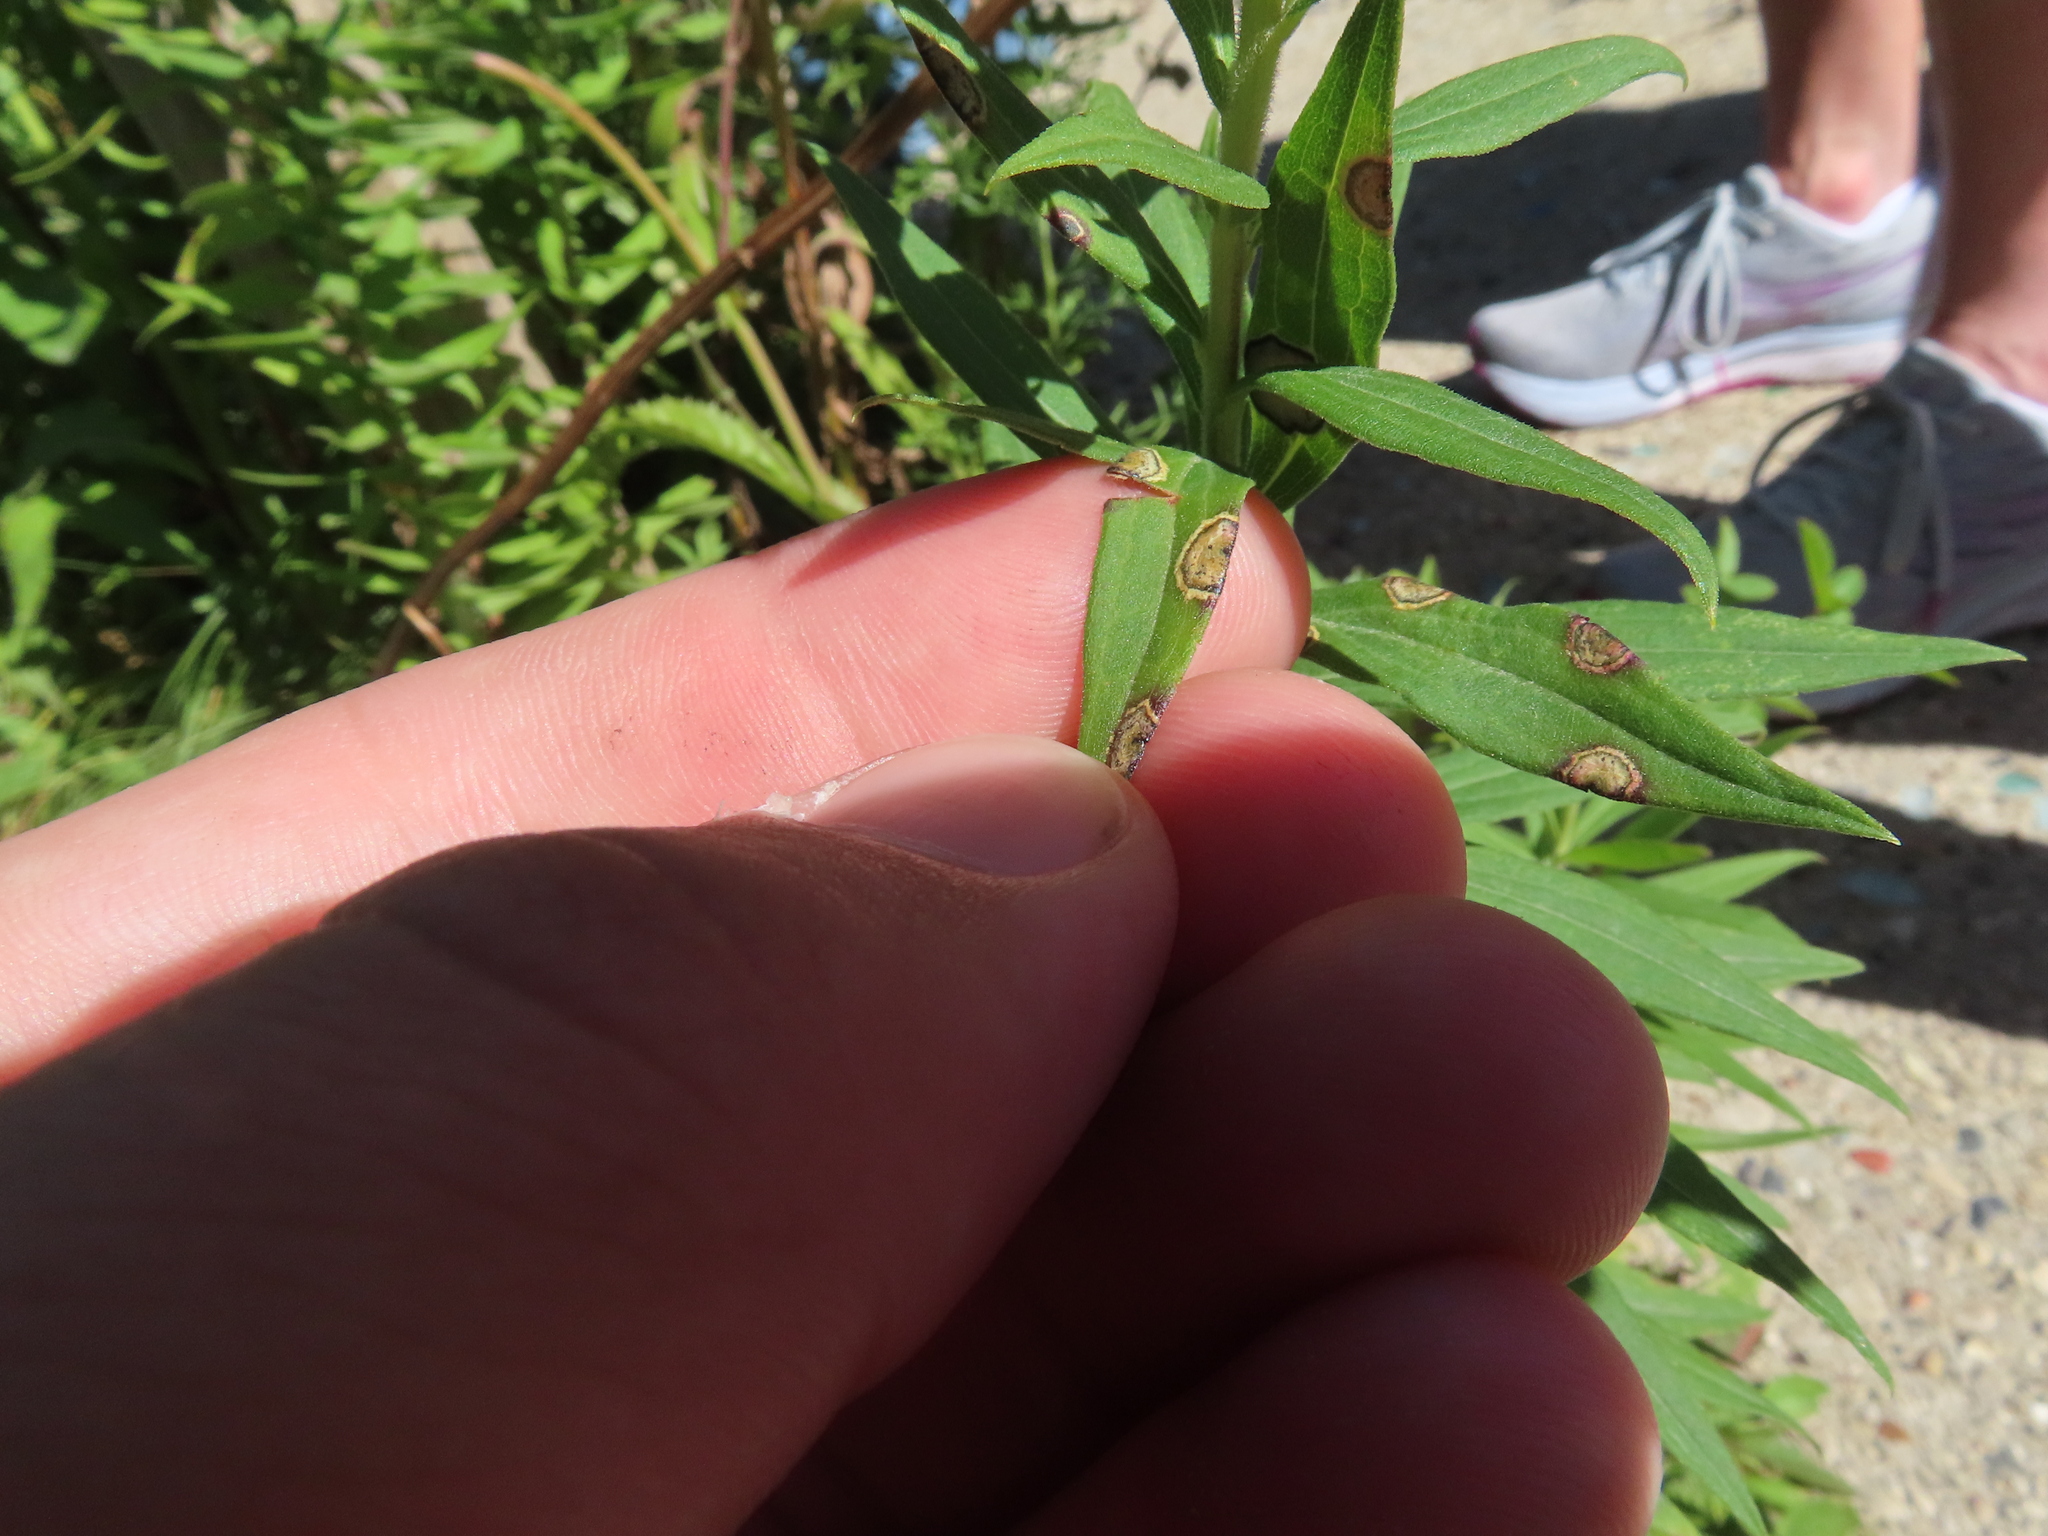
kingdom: Animalia
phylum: Arthropoda
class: Insecta
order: Diptera
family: Cecidomyiidae
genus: Asteromyia
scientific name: Asteromyia carbonifera
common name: Carbonifera goldenrod gall midge
